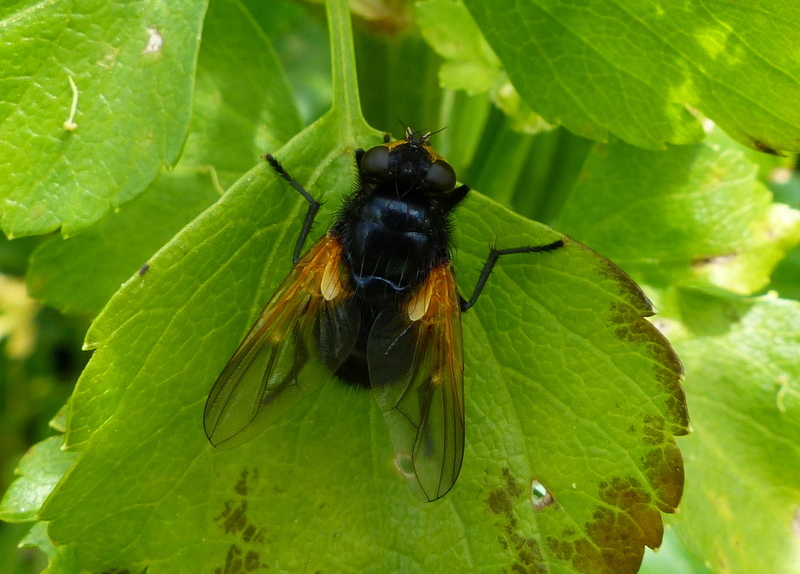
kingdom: Animalia
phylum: Arthropoda
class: Insecta
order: Diptera
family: Muscidae
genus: Mesembrina
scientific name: Mesembrina meridiana
